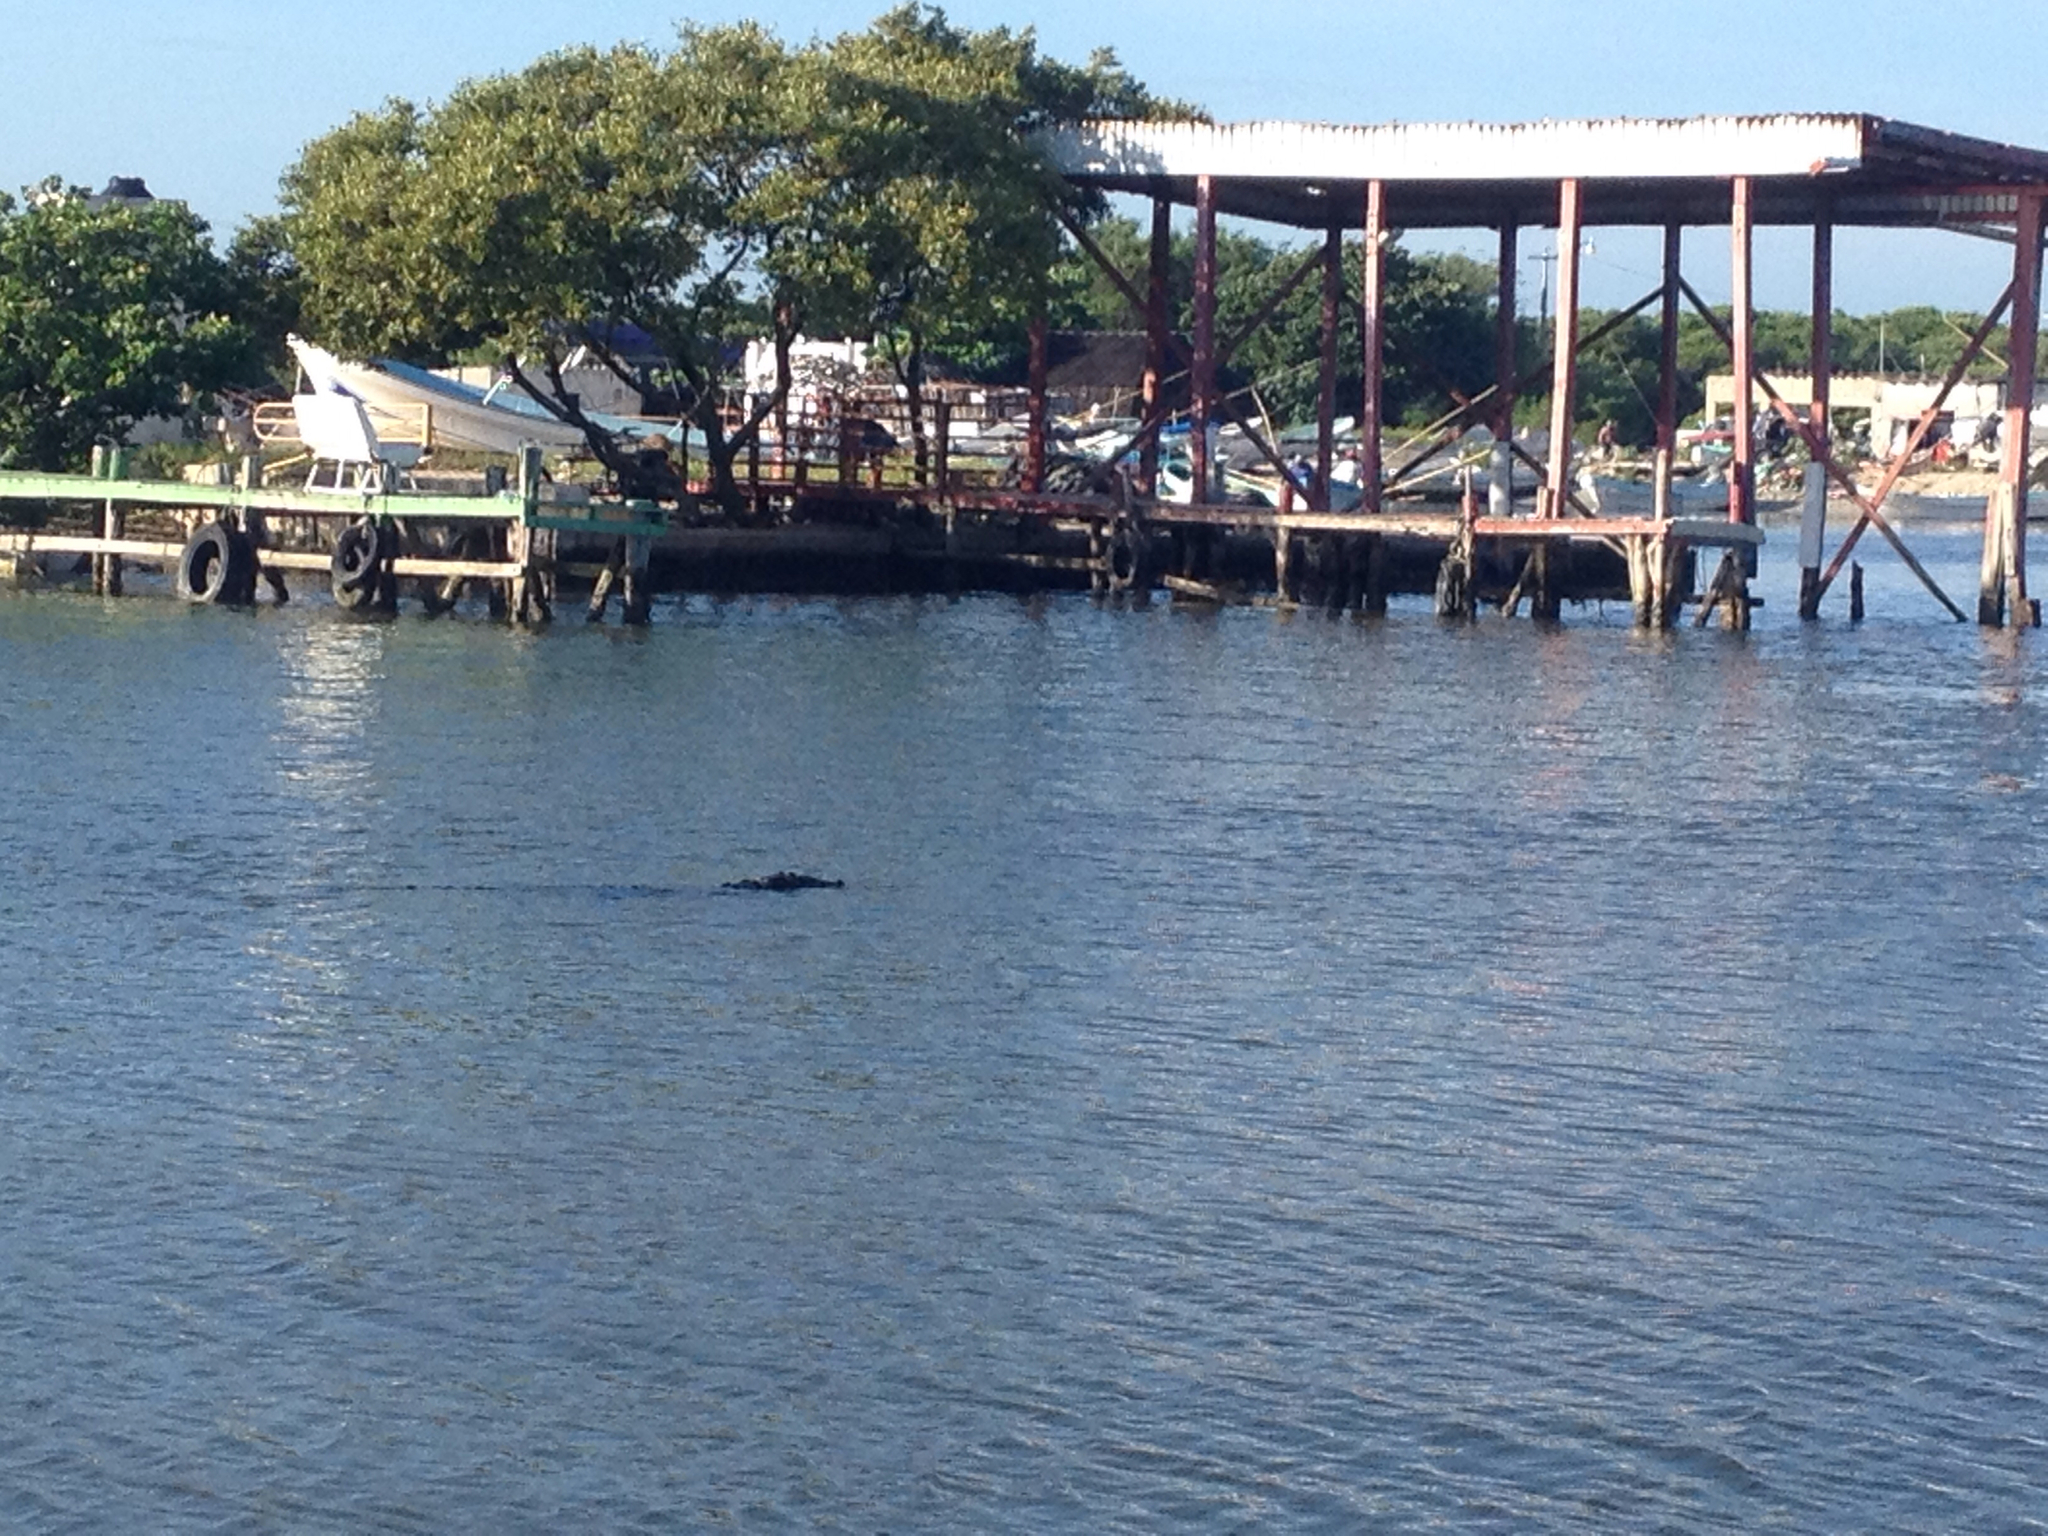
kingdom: Animalia
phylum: Chordata
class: Crocodylia
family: Crocodylidae
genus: Crocodylus
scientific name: Crocodylus moreletii
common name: Morelet's crocodile
